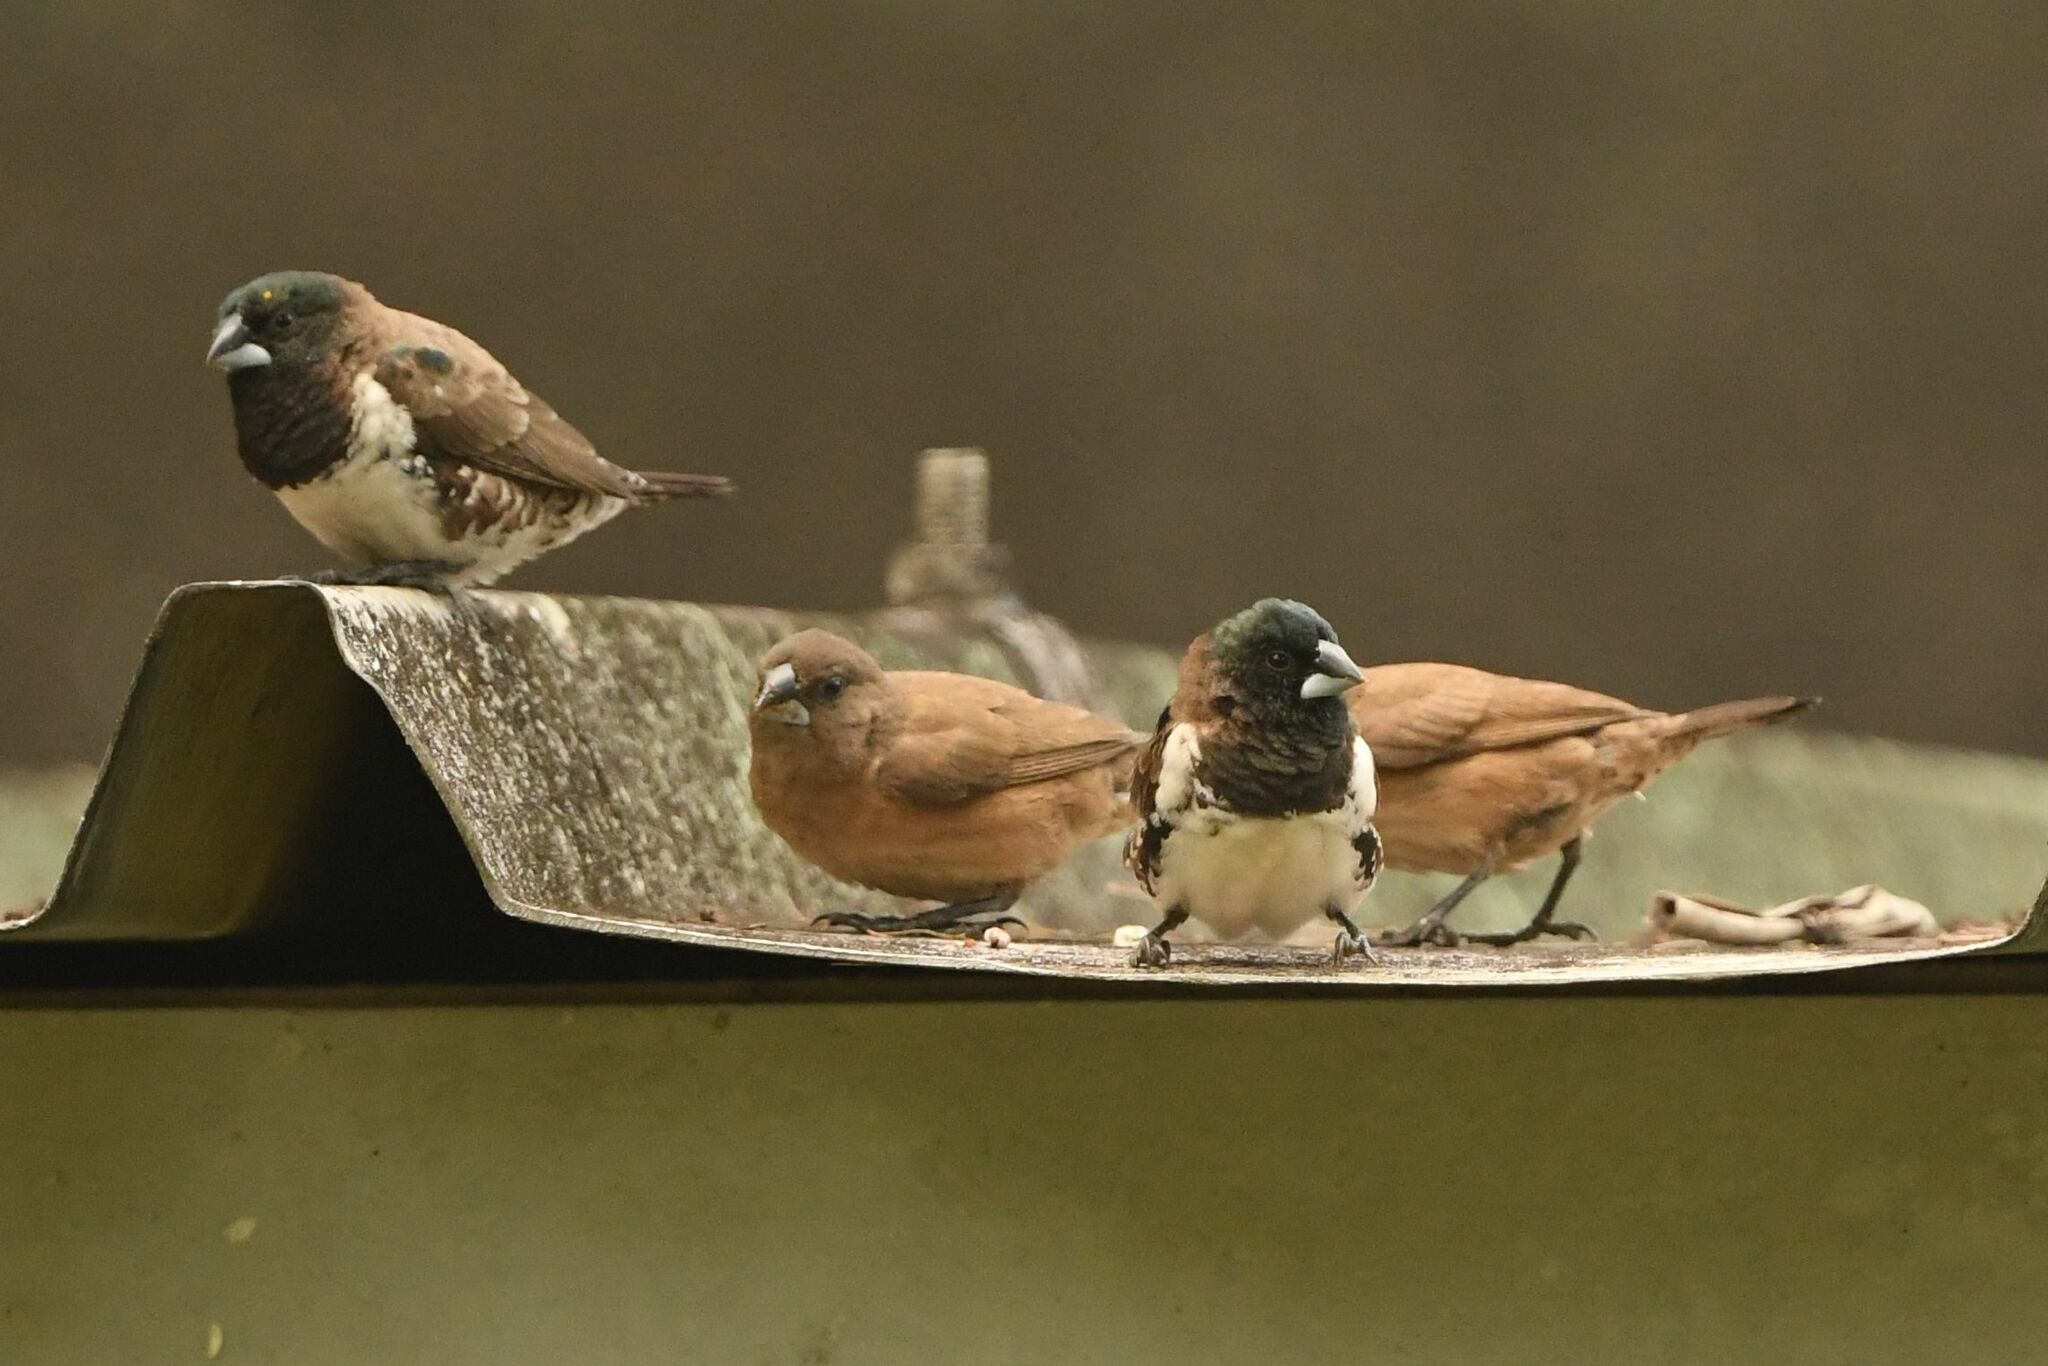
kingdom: Animalia
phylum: Chordata
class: Aves
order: Passeriformes
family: Estrildidae
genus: Lonchura
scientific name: Lonchura cucullata
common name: Bronze mannikin
